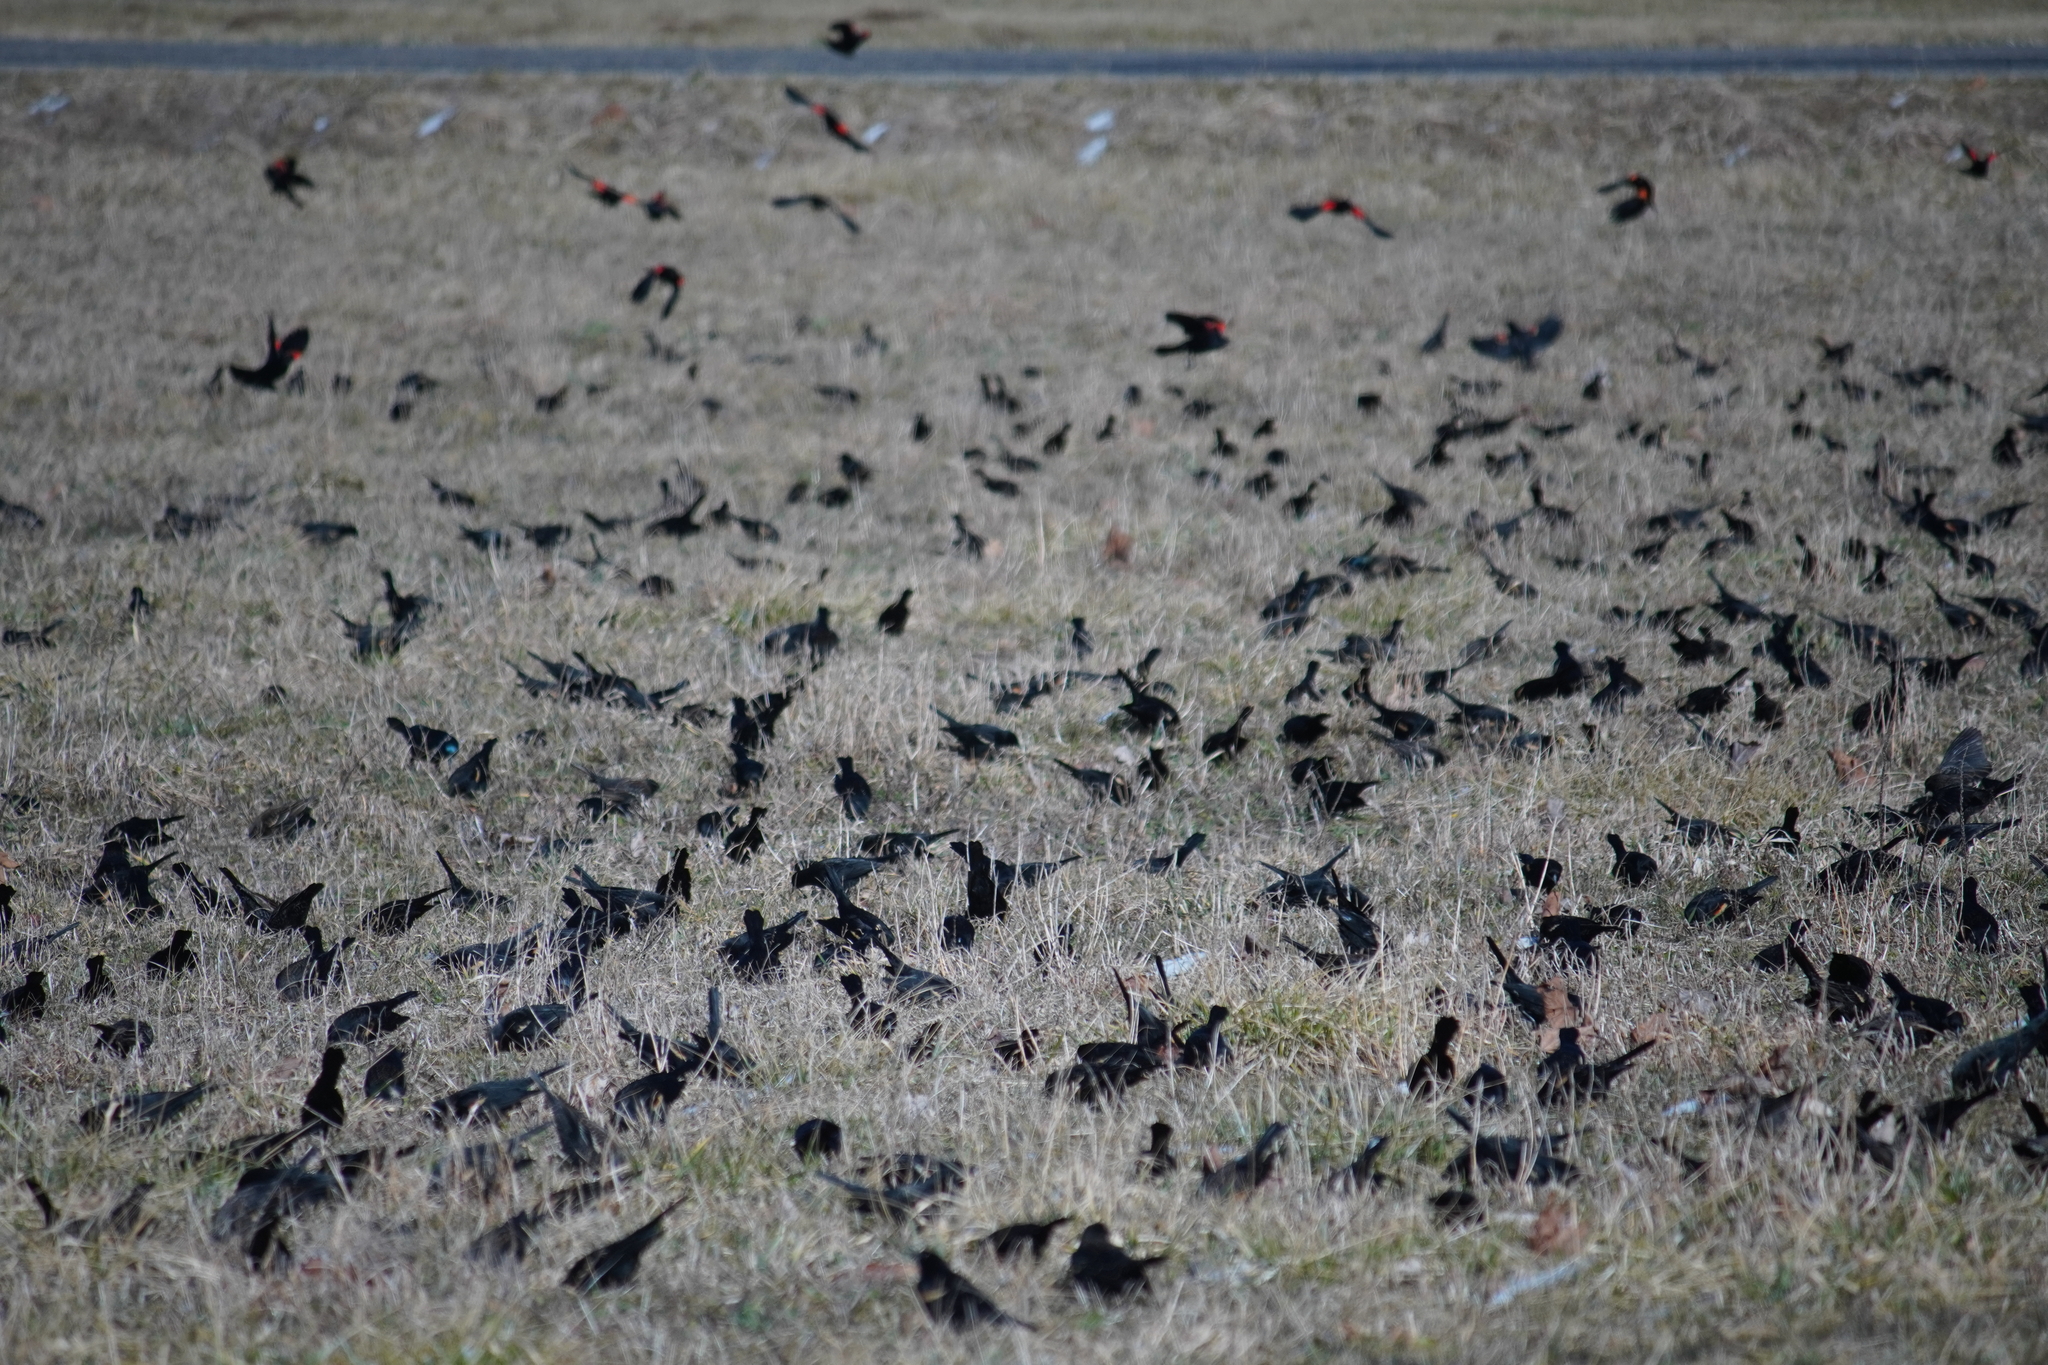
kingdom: Animalia
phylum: Chordata
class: Aves
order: Passeriformes
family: Icteridae
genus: Agelaius
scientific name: Agelaius phoeniceus
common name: Red-winged blackbird
